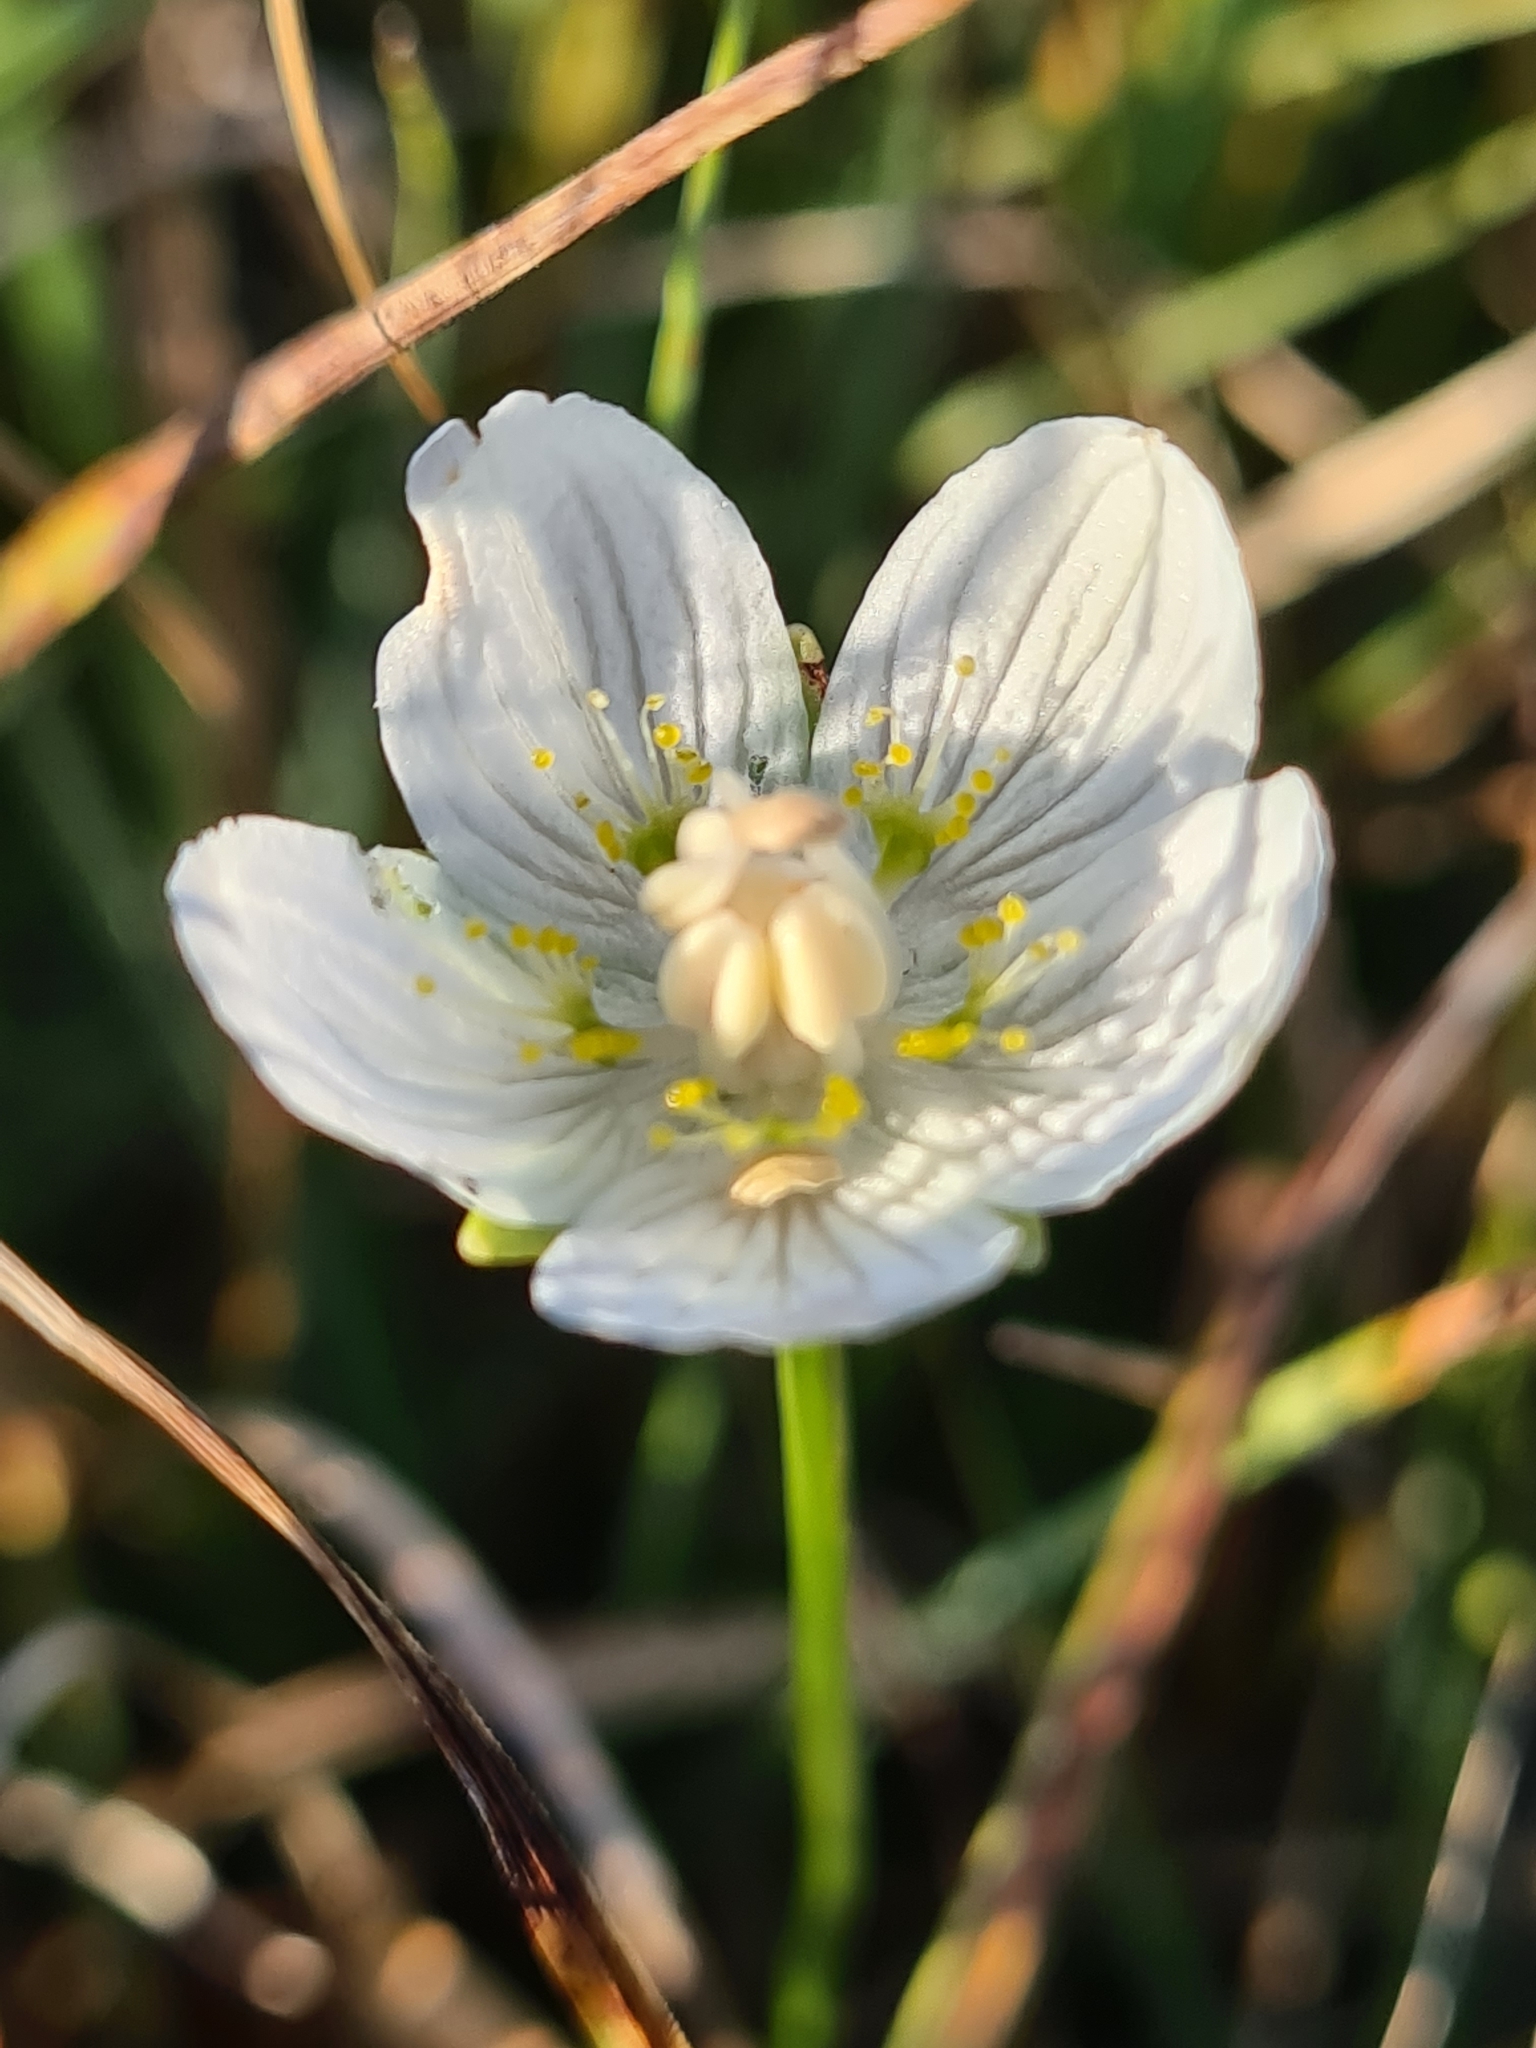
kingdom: Plantae
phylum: Tracheophyta
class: Magnoliopsida
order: Celastrales
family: Parnassiaceae
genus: Parnassia
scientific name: Parnassia palustris
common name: Grass-of-parnassus
